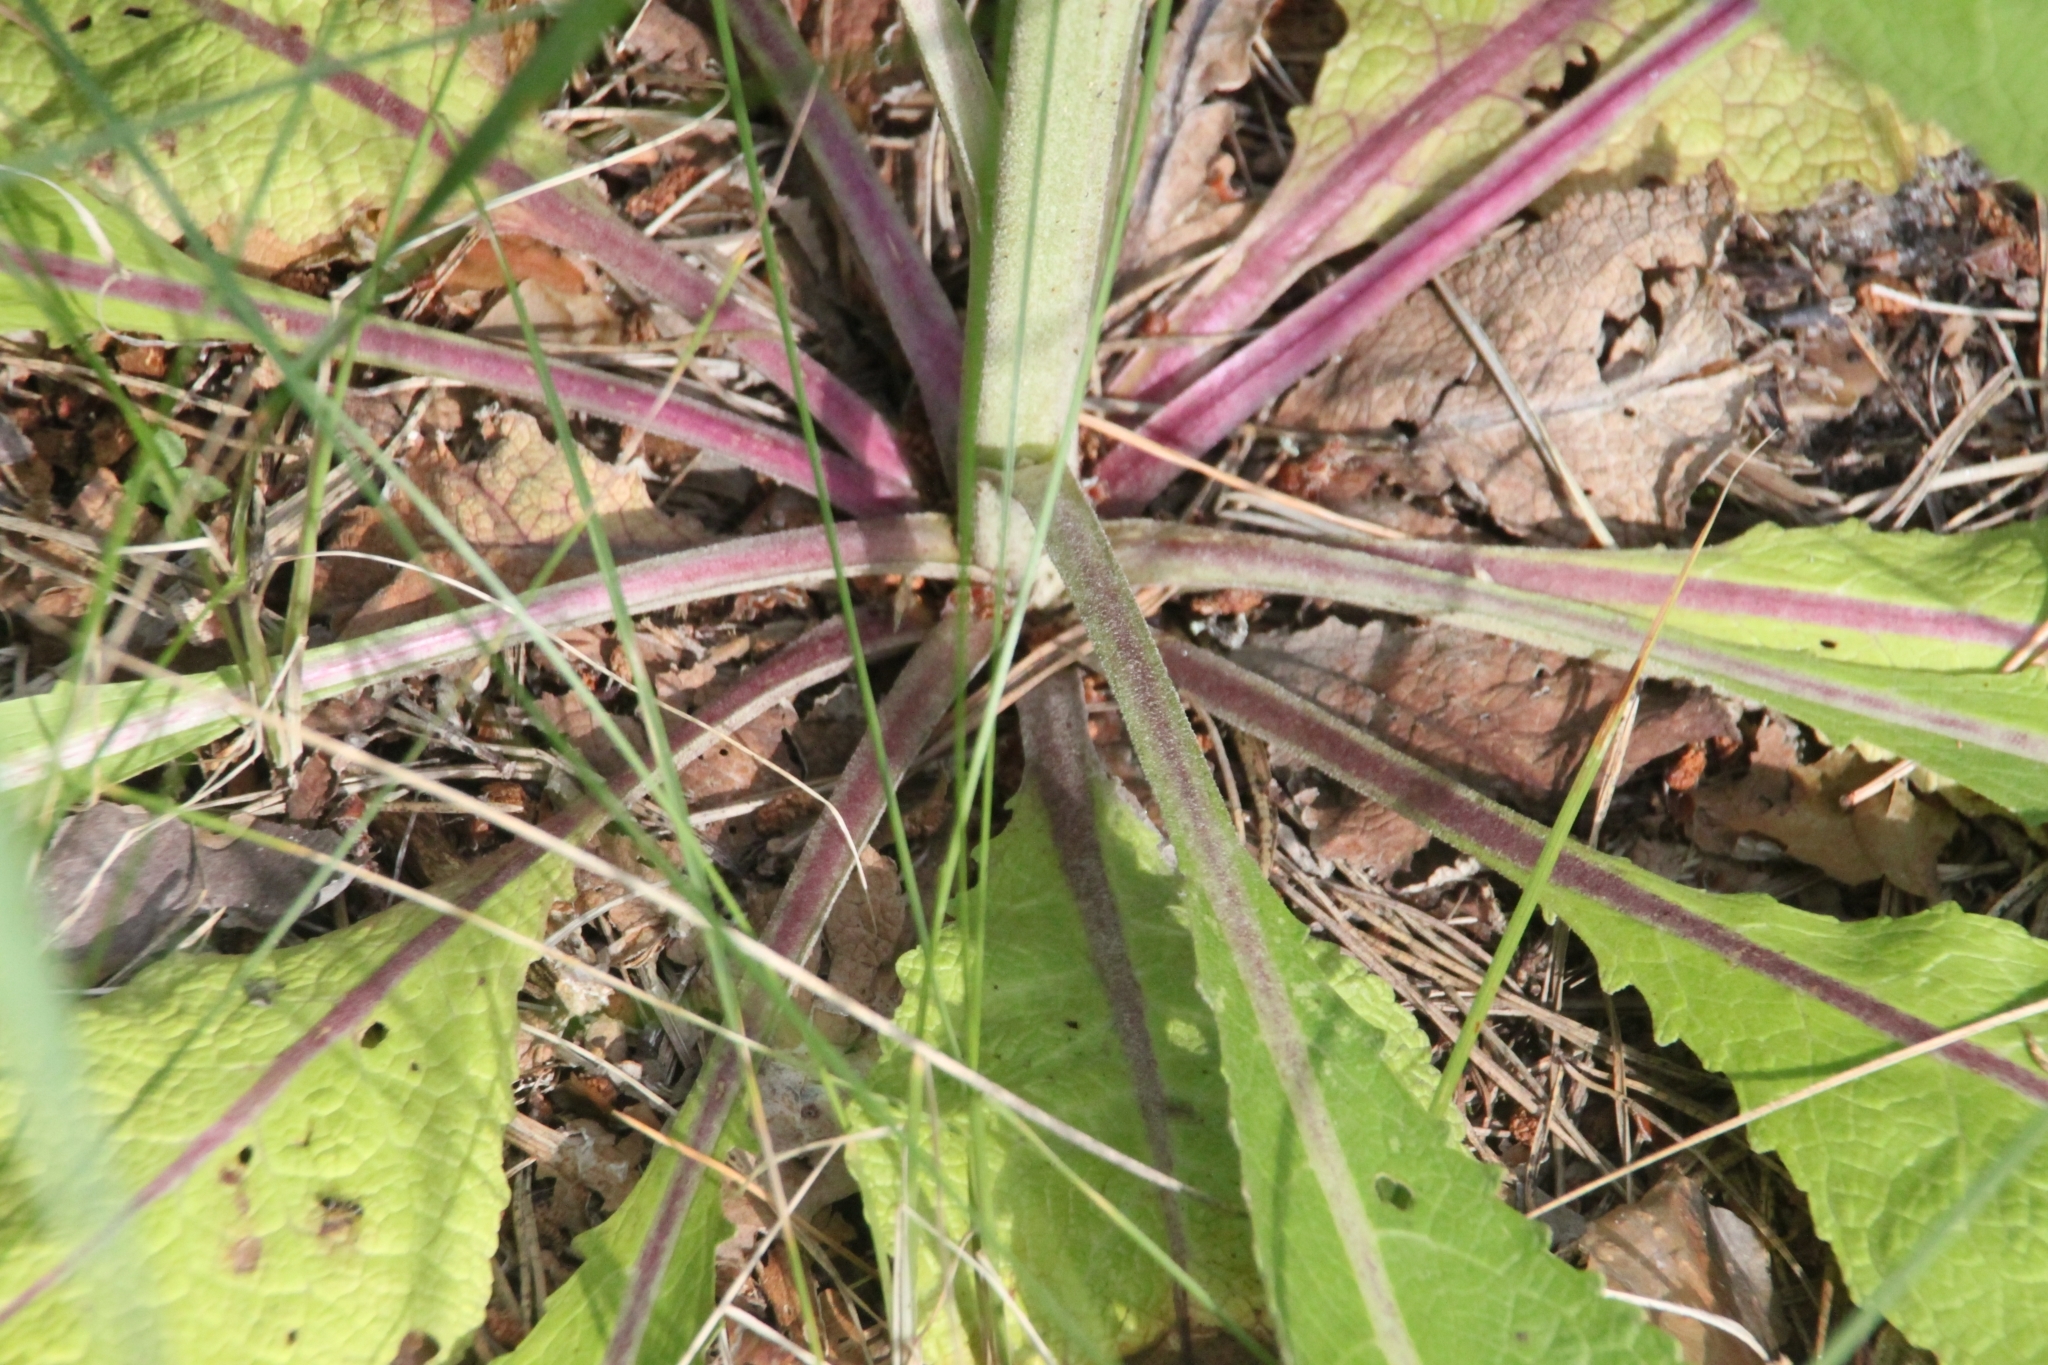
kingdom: Plantae
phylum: Tracheophyta
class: Magnoliopsida
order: Lamiales
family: Scrophulariaceae
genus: Verbascum
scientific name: Verbascum lychnitis
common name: White mullein
